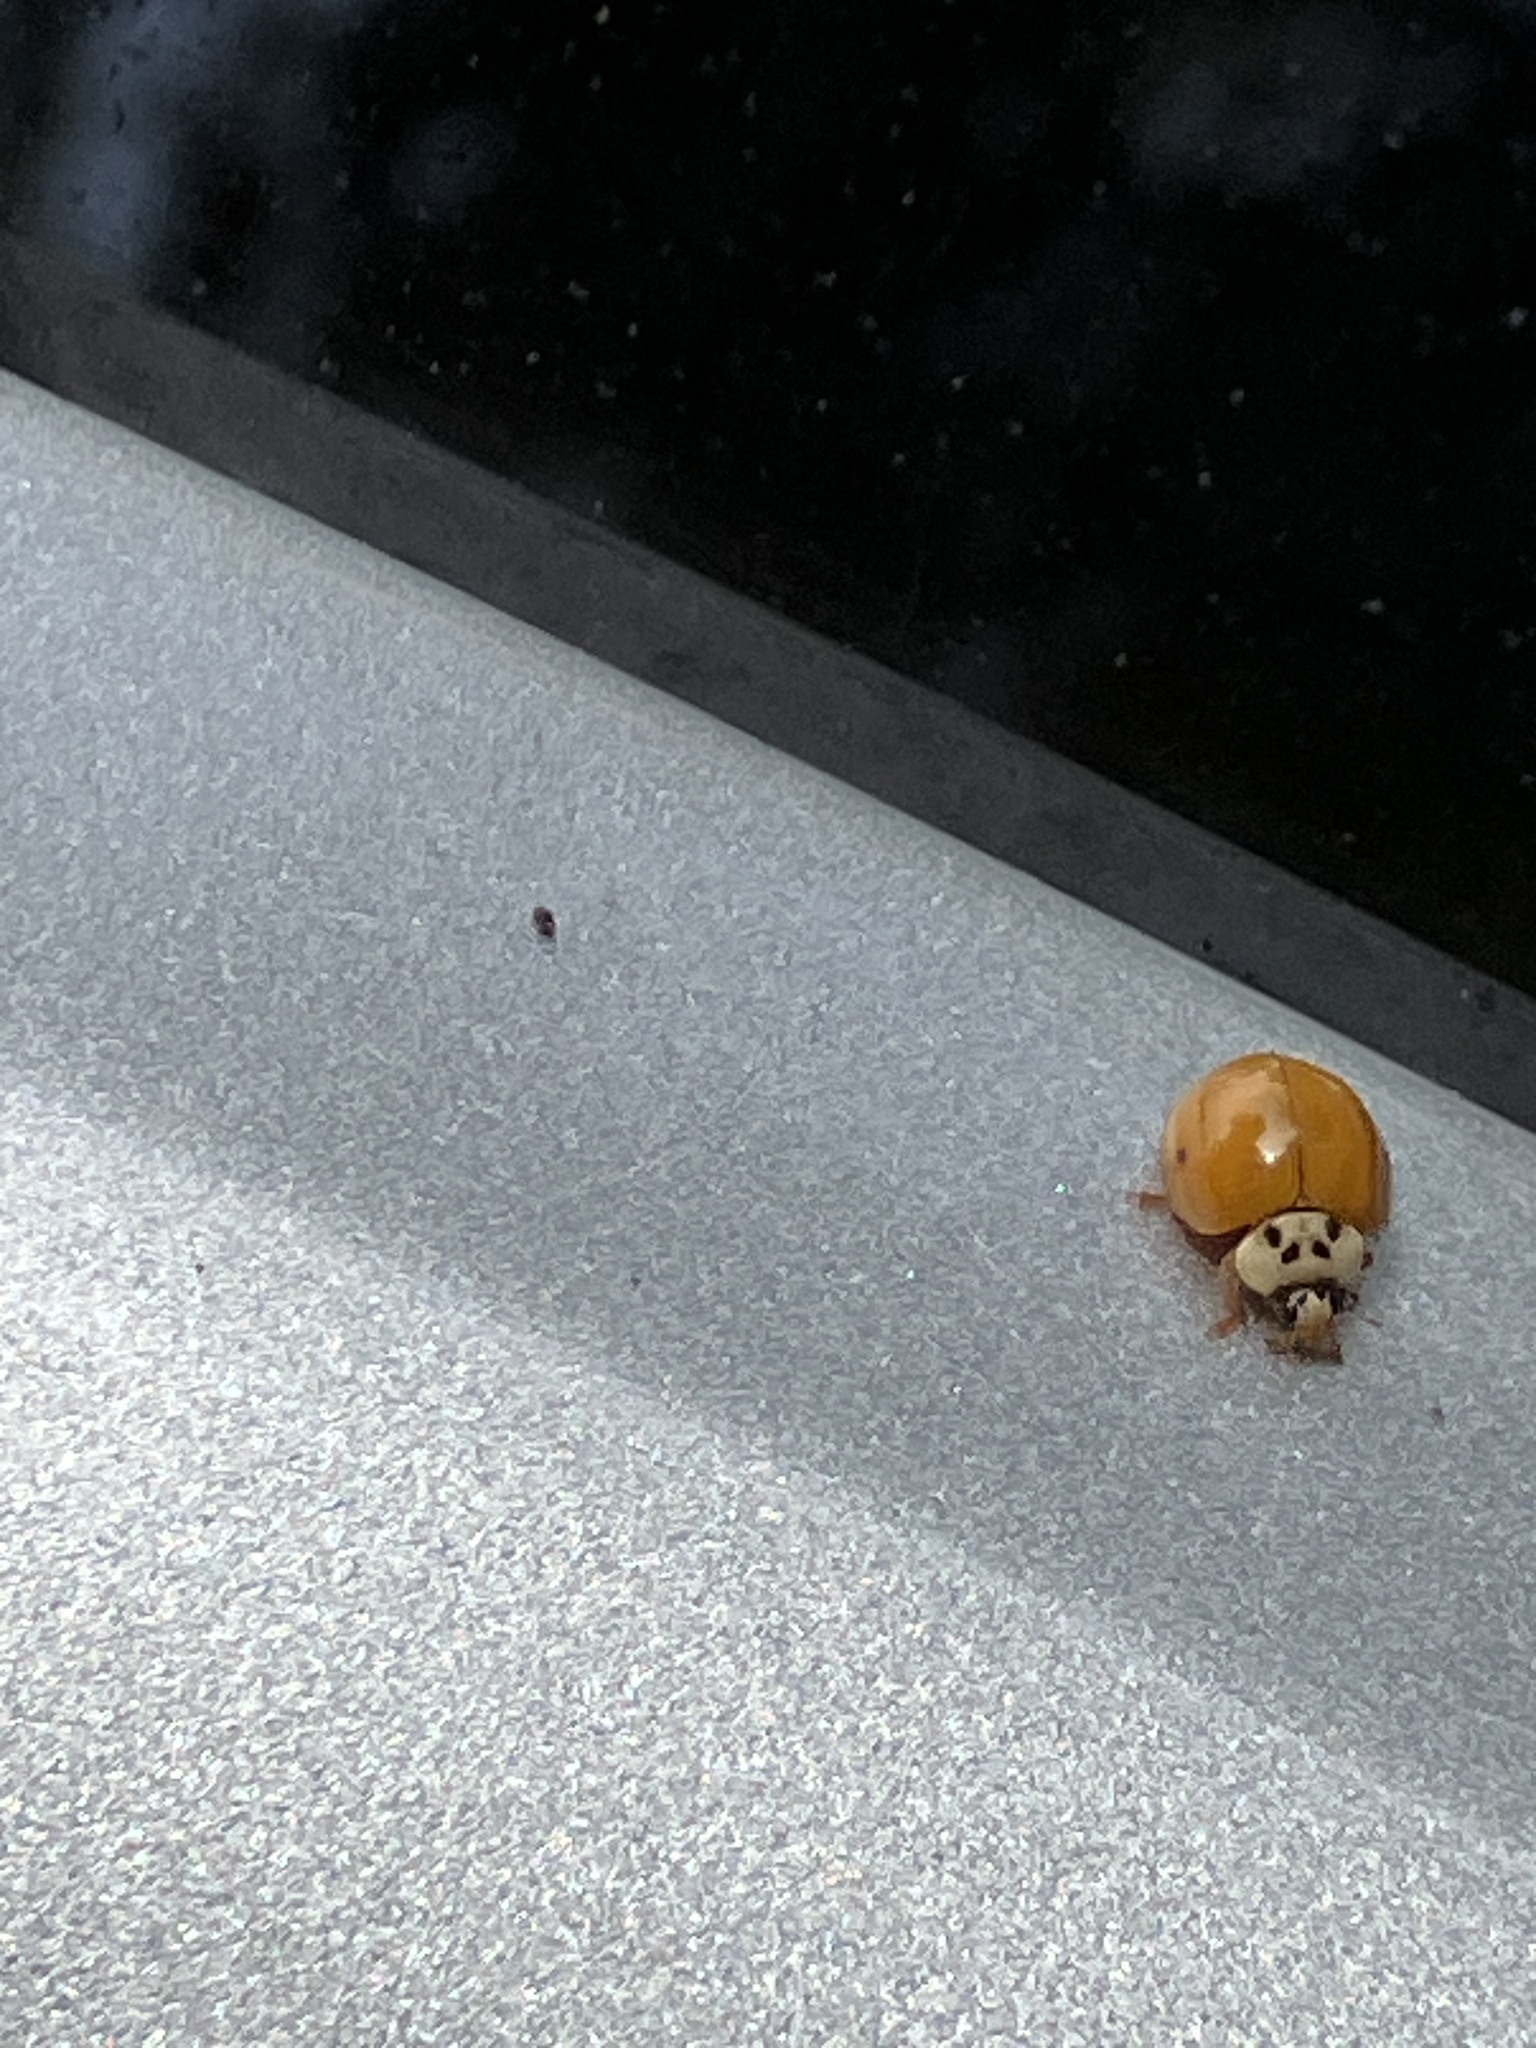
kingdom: Animalia
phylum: Arthropoda
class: Insecta
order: Coleoptera
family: Coccinellidae
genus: Harmonia
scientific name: Harmonia axyridis
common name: Harlequin ladybird
